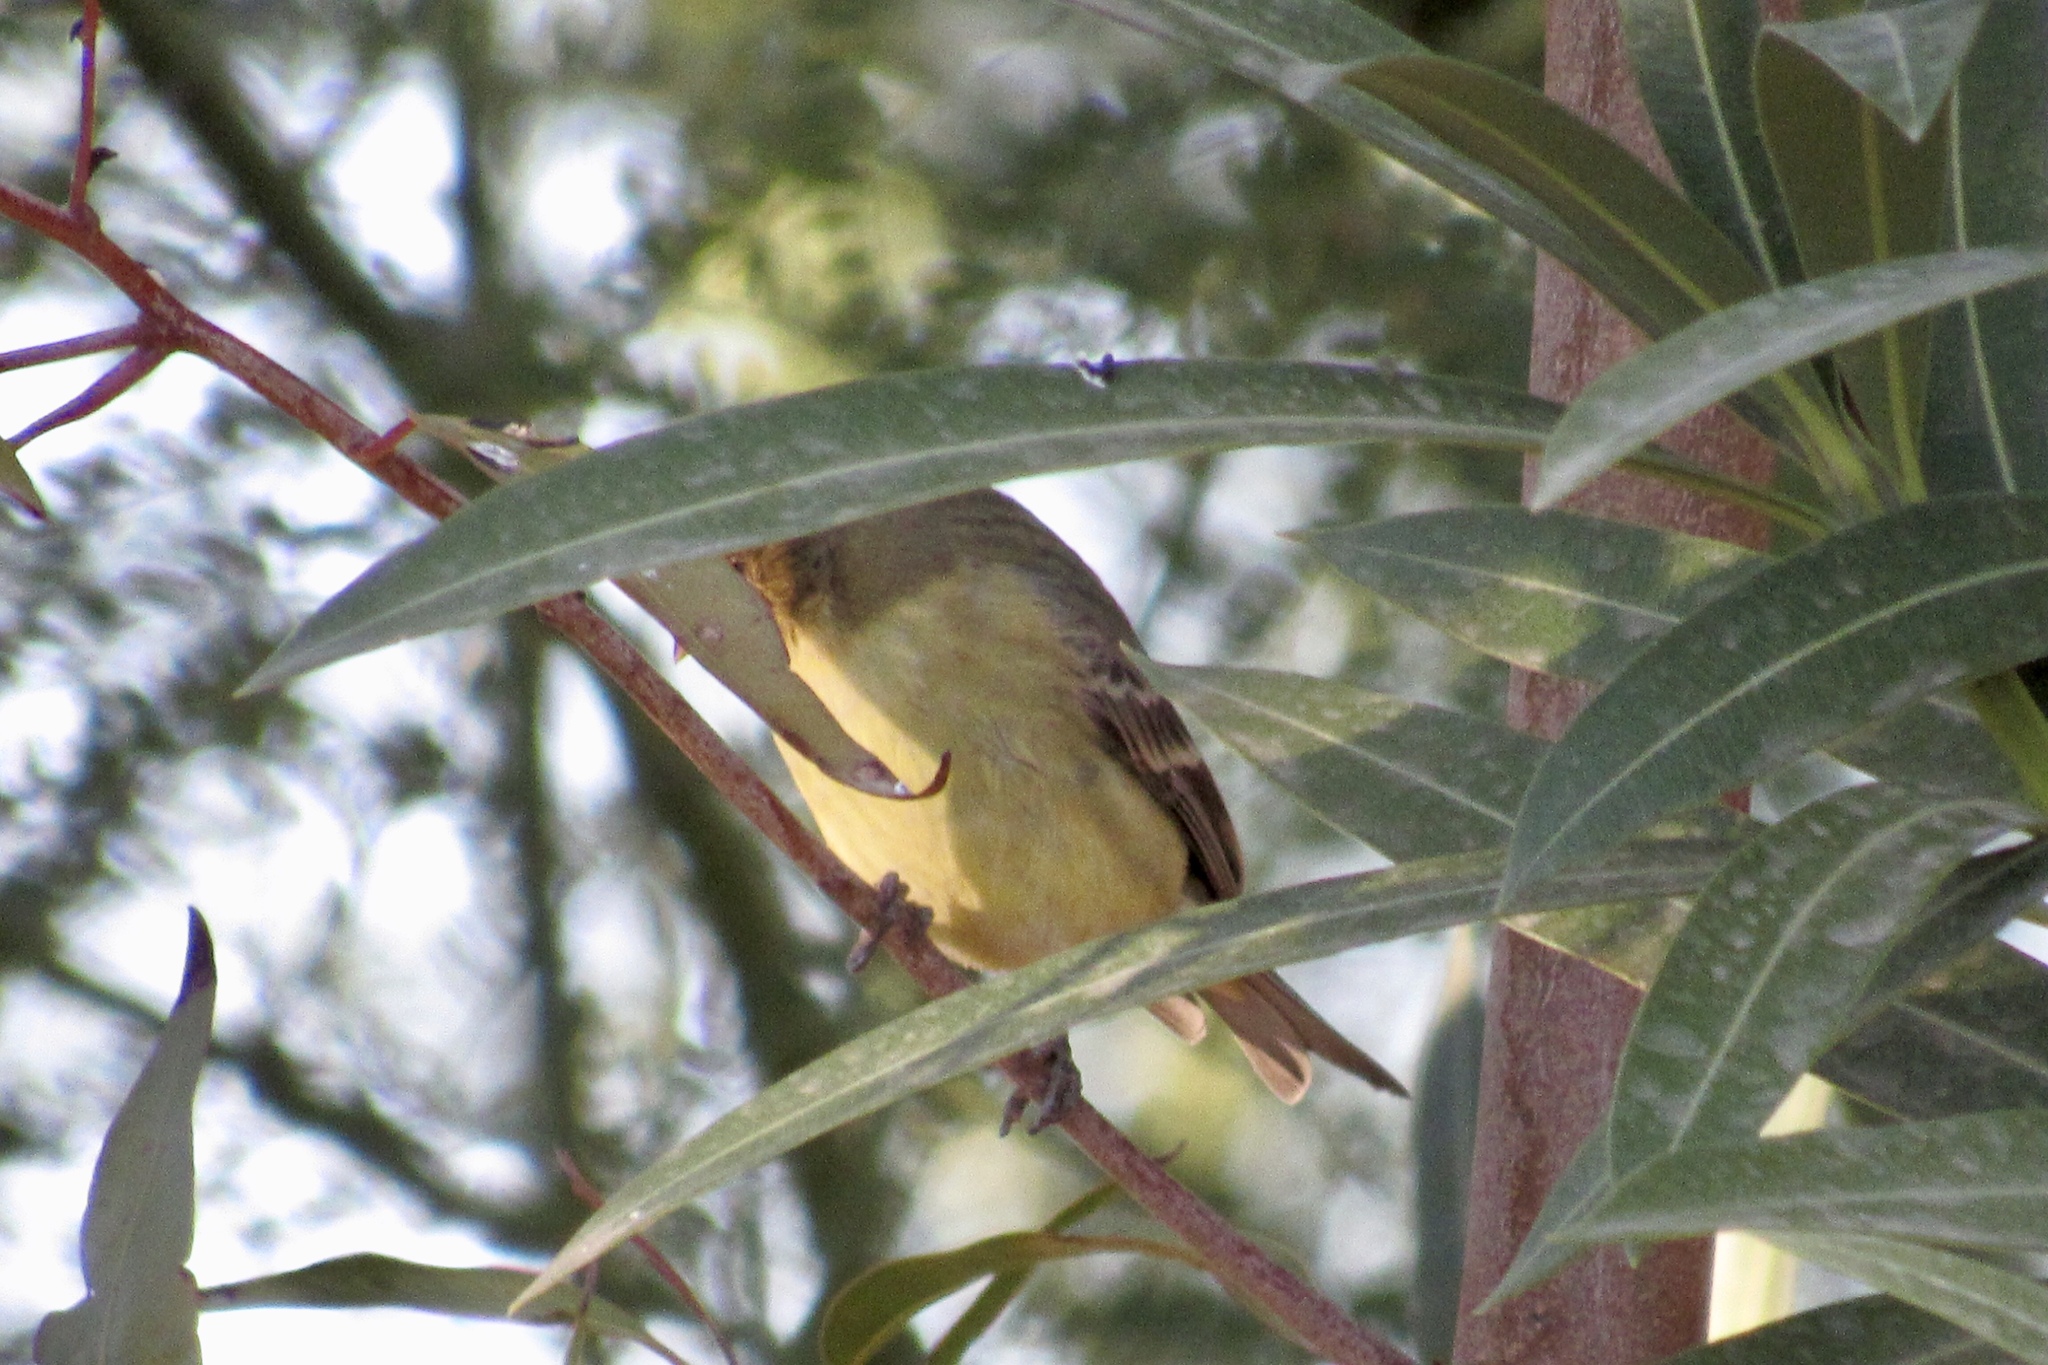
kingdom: Animalia
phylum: Chordata
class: Aves
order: Passeriformes
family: Fringillidae
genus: Spinus
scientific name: Spinus psaltria
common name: Lesser goldfinch
